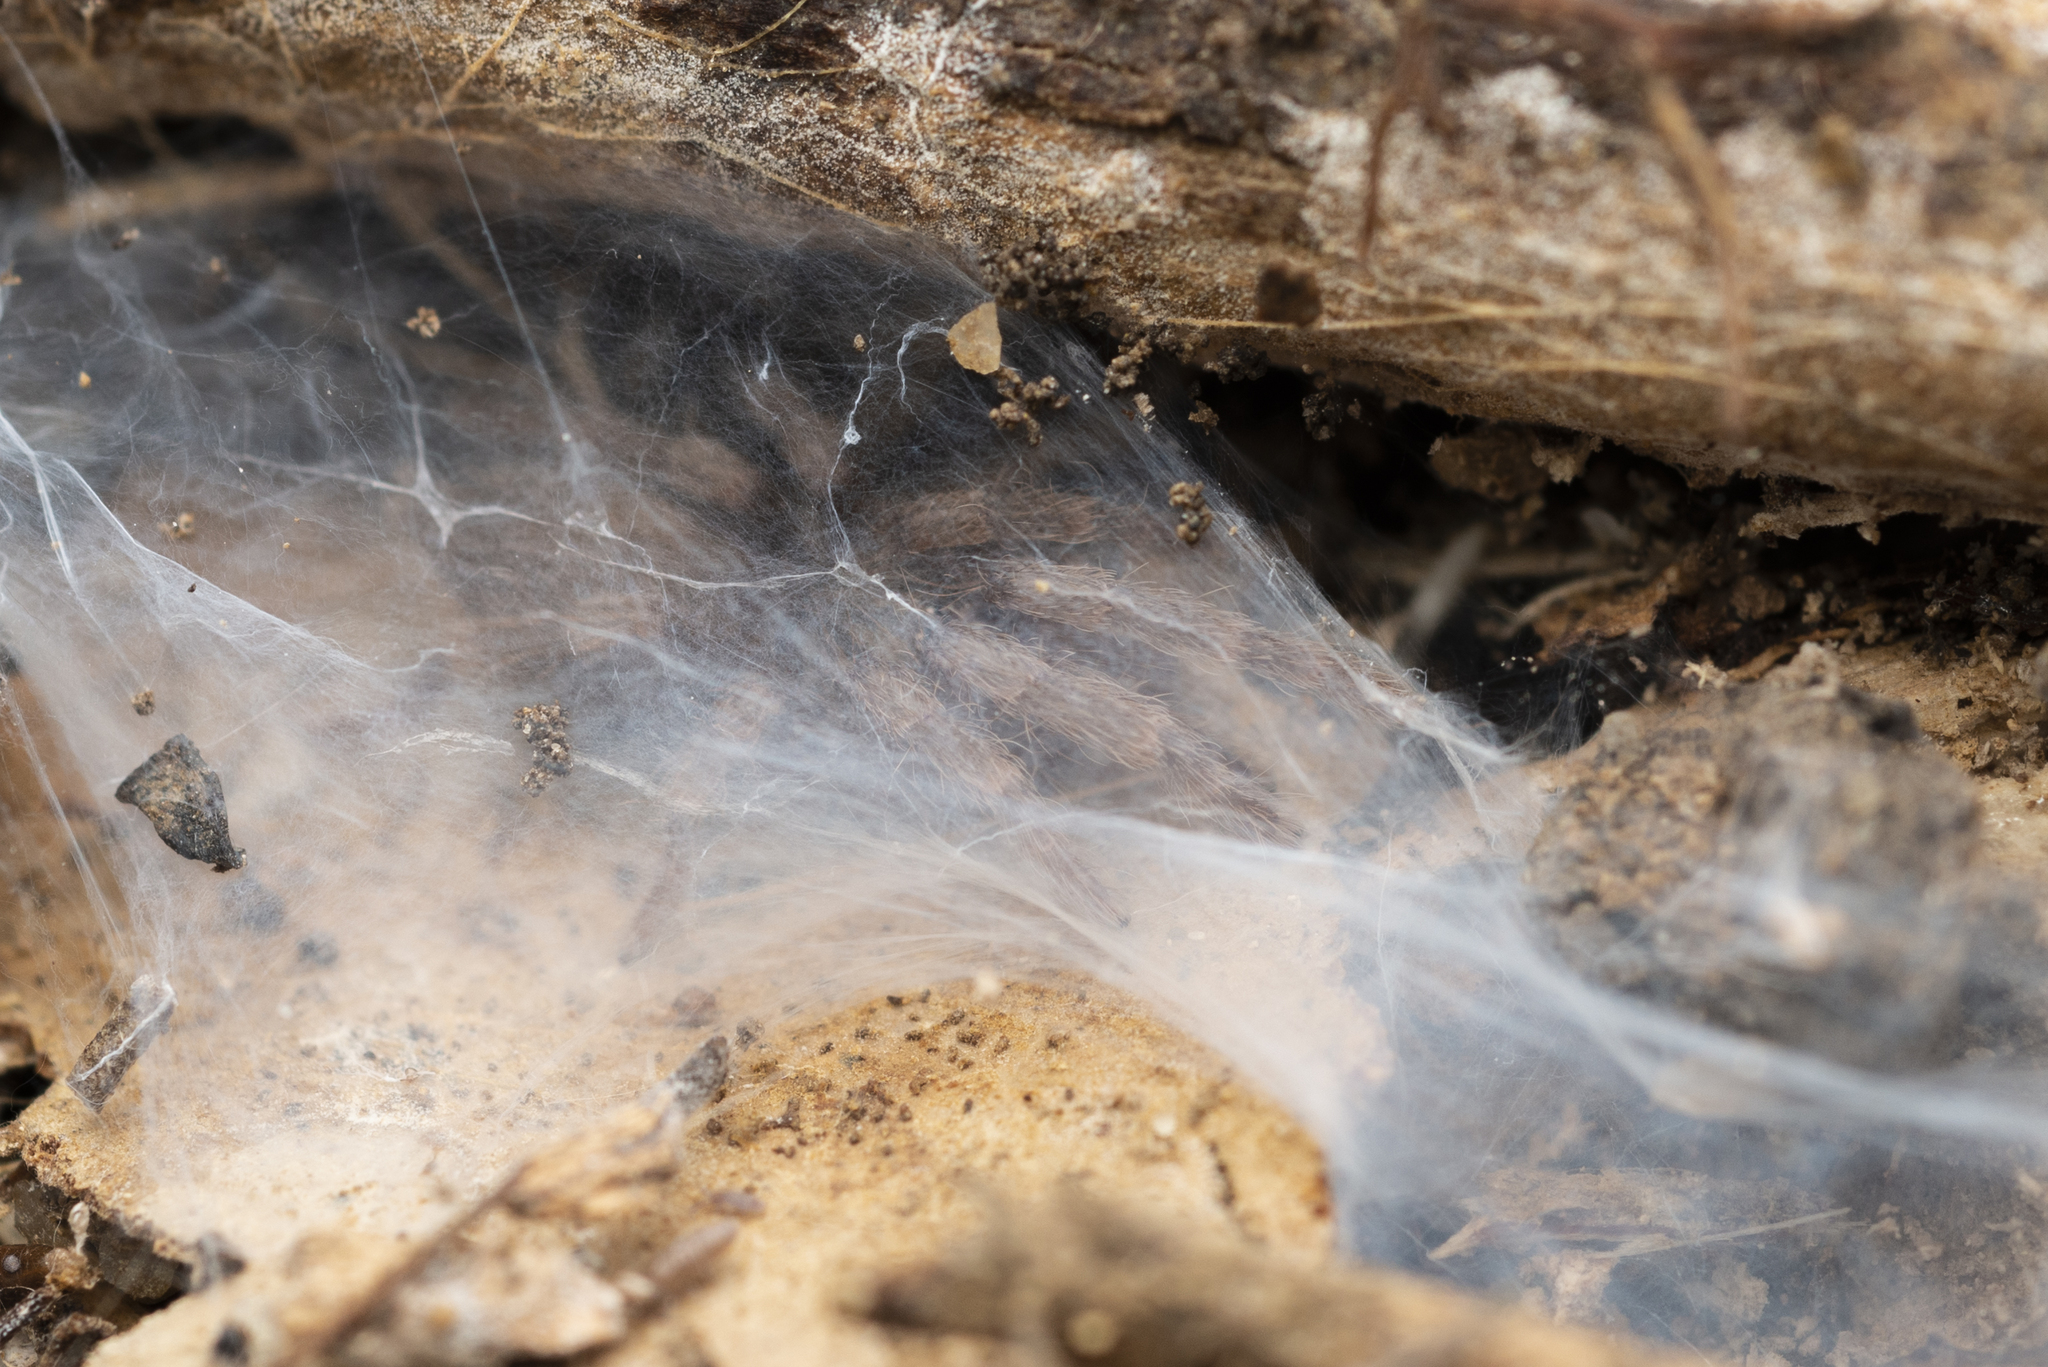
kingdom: Animalia
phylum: Arthropoda
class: Arachnida
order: Araneae
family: Theraphosidae
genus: Phlogiellus
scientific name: Phlogiellus
